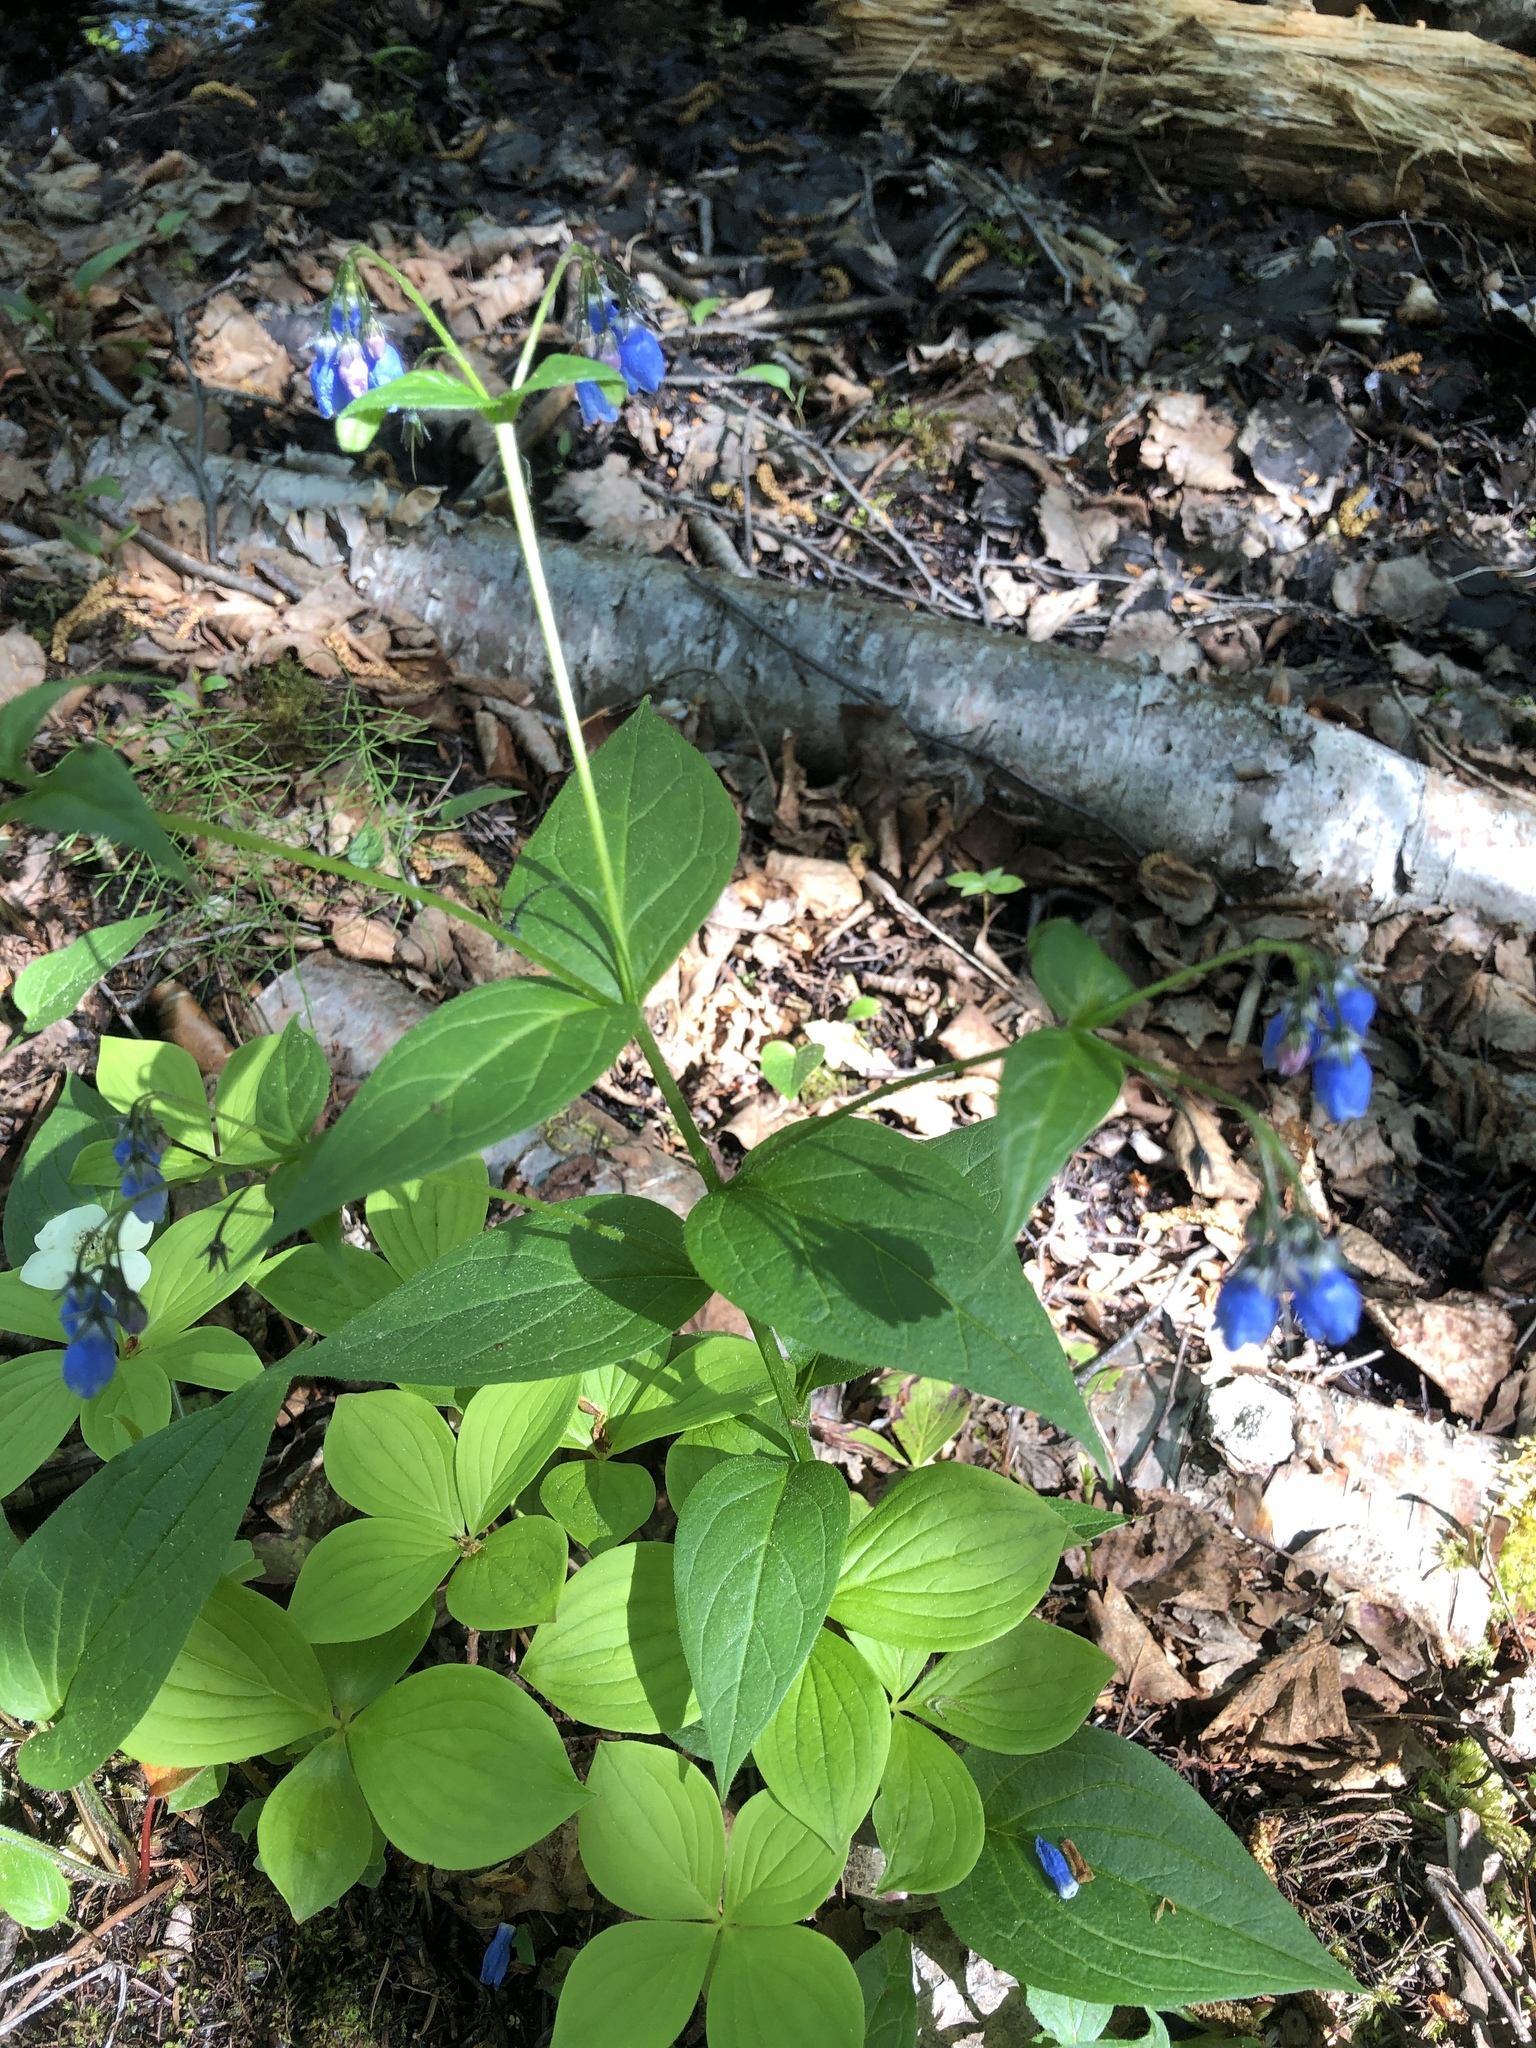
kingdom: Plantae
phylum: Tracheophyta
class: Magnoliopsida
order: Boraginales
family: Boraginaceae
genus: Mertensia
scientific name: Mertensia paniculata
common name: Panicled bluebells
